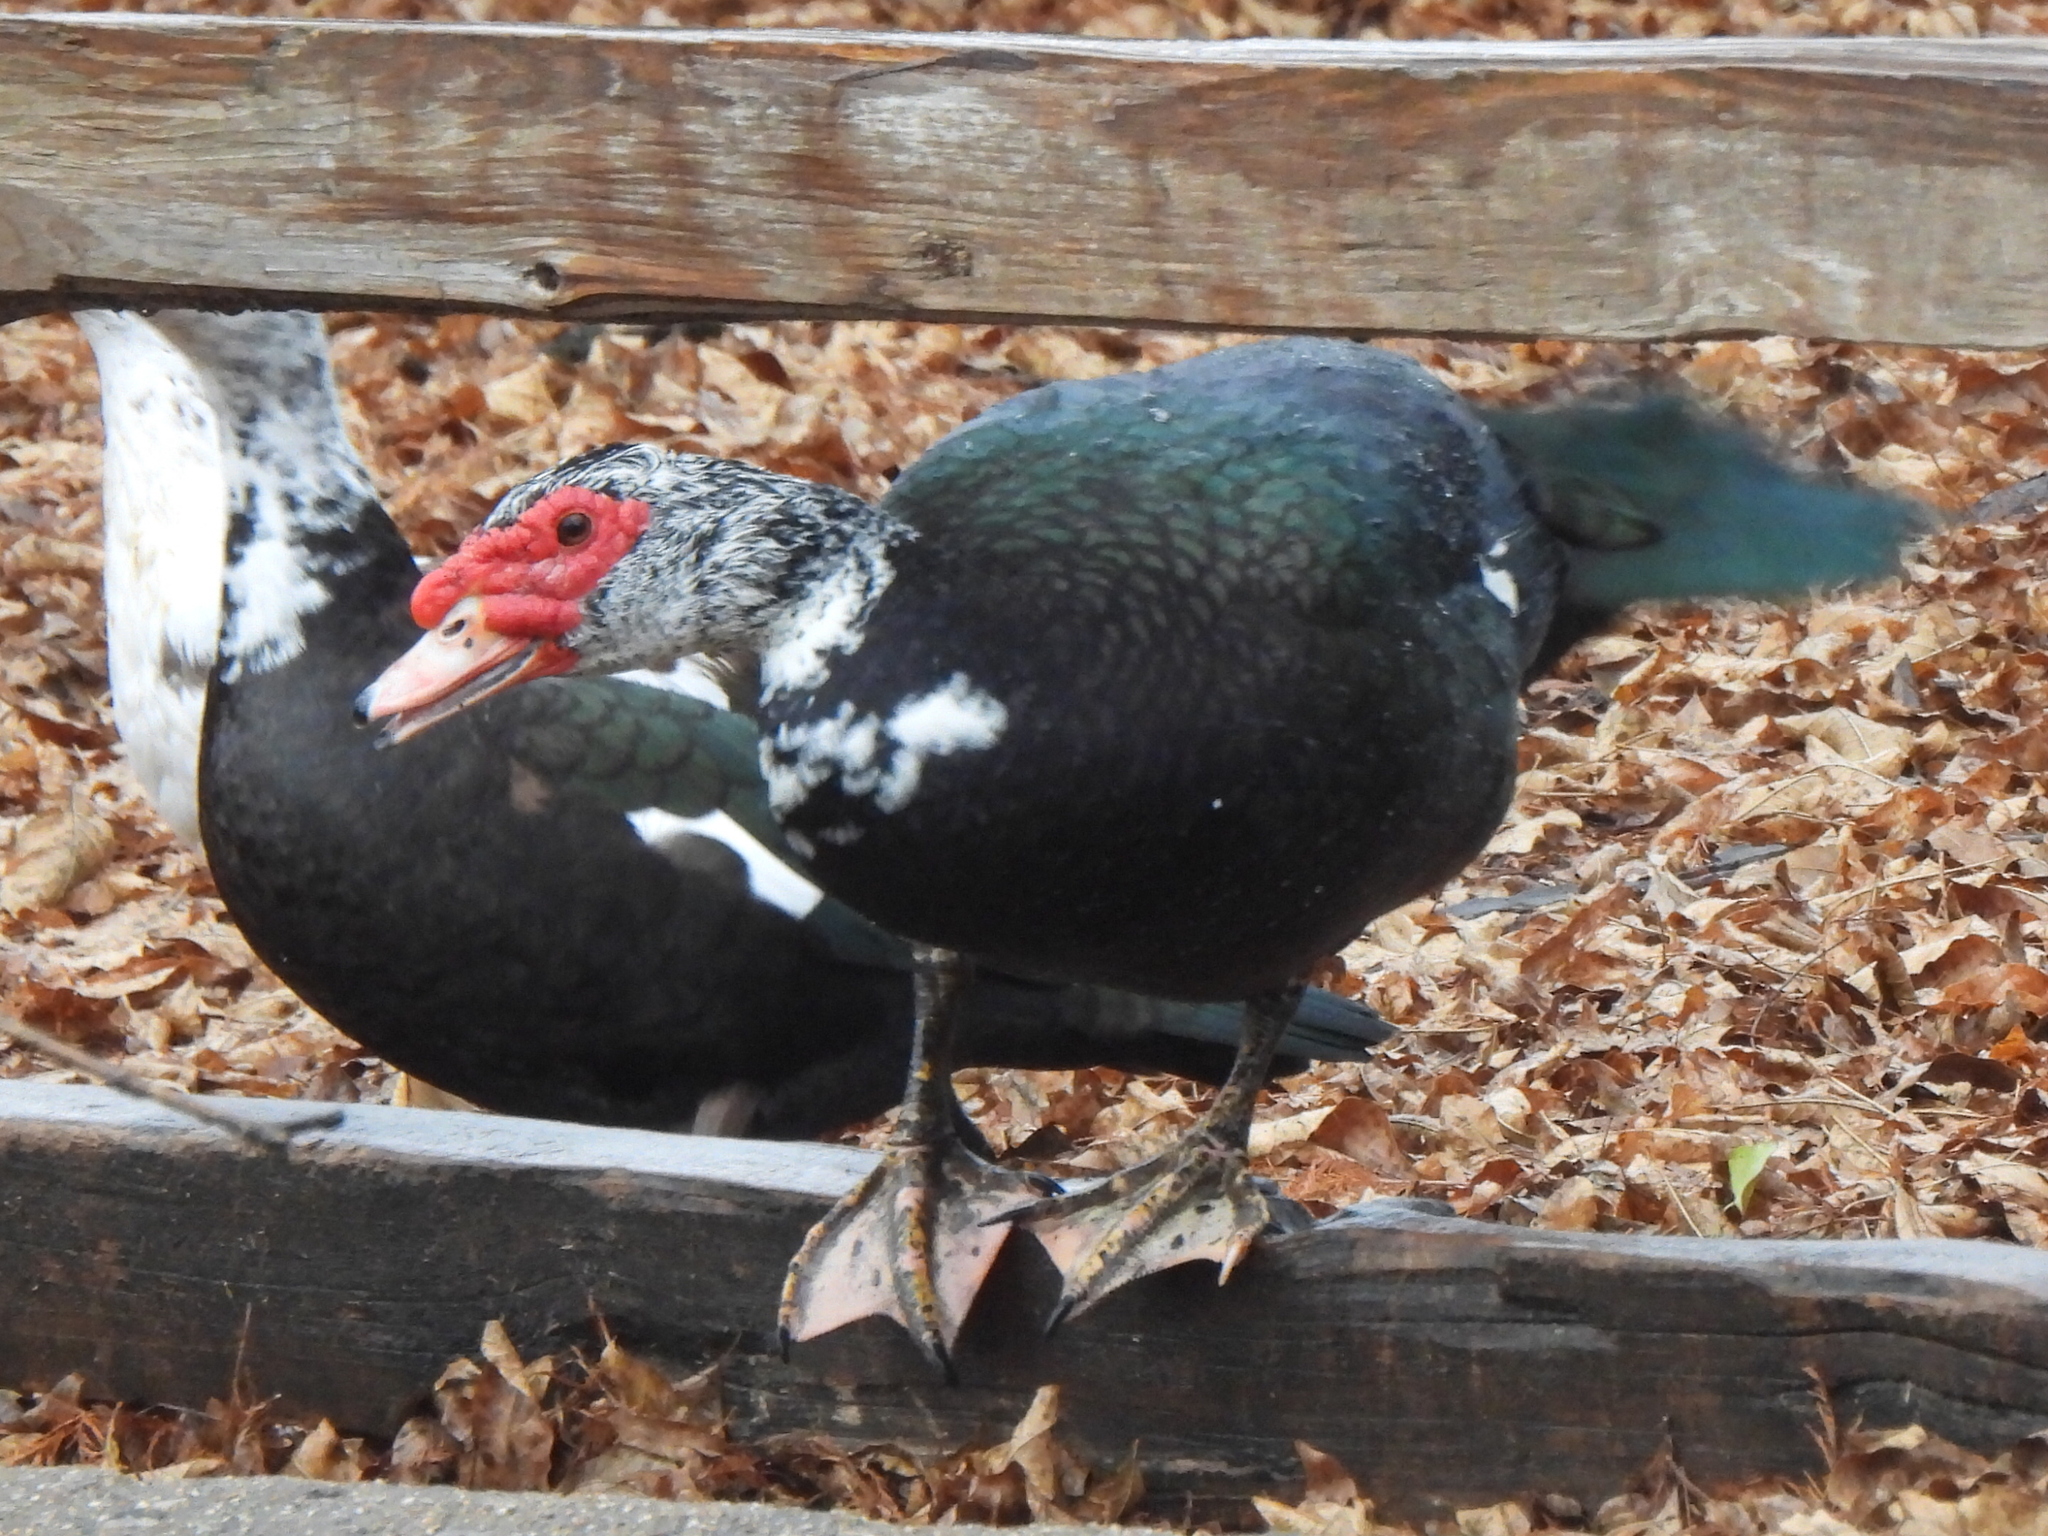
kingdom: Animalia
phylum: Chordata
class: Aves
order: Anseriformes
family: Anatidae
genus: Cairina
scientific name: Cairina moschata
